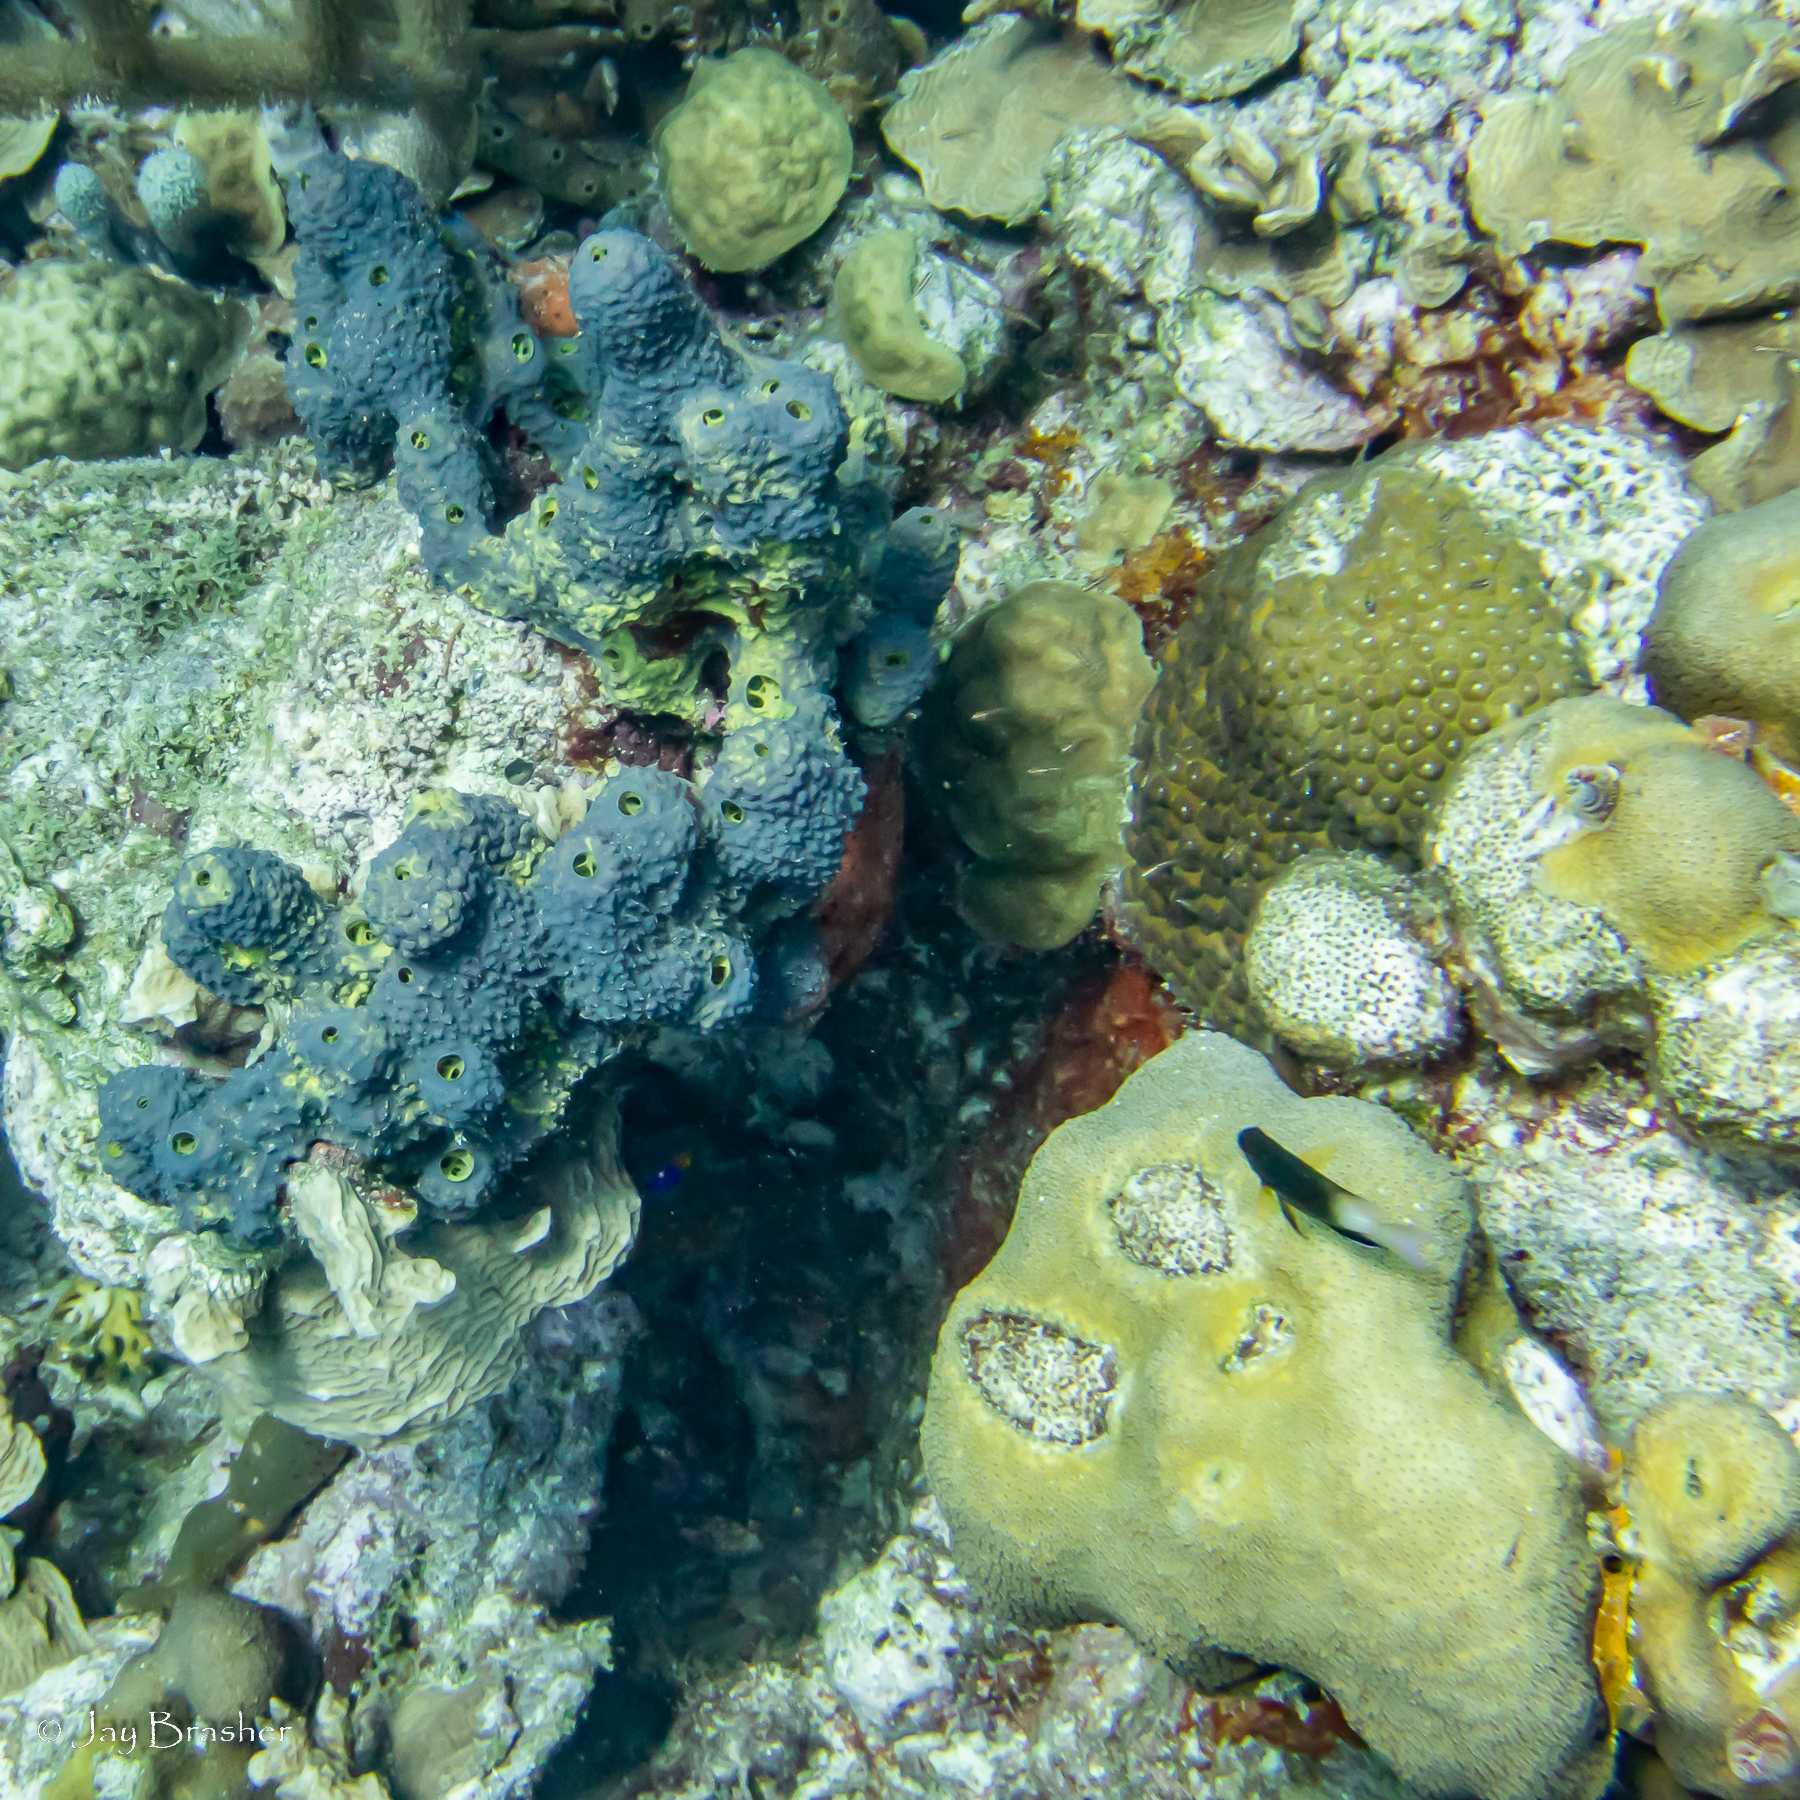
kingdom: Animalia
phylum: Chordata
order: Perciformes
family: Pomacentridae
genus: Stegastes
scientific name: Stegastes partitus
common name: Bicolor damselfish
